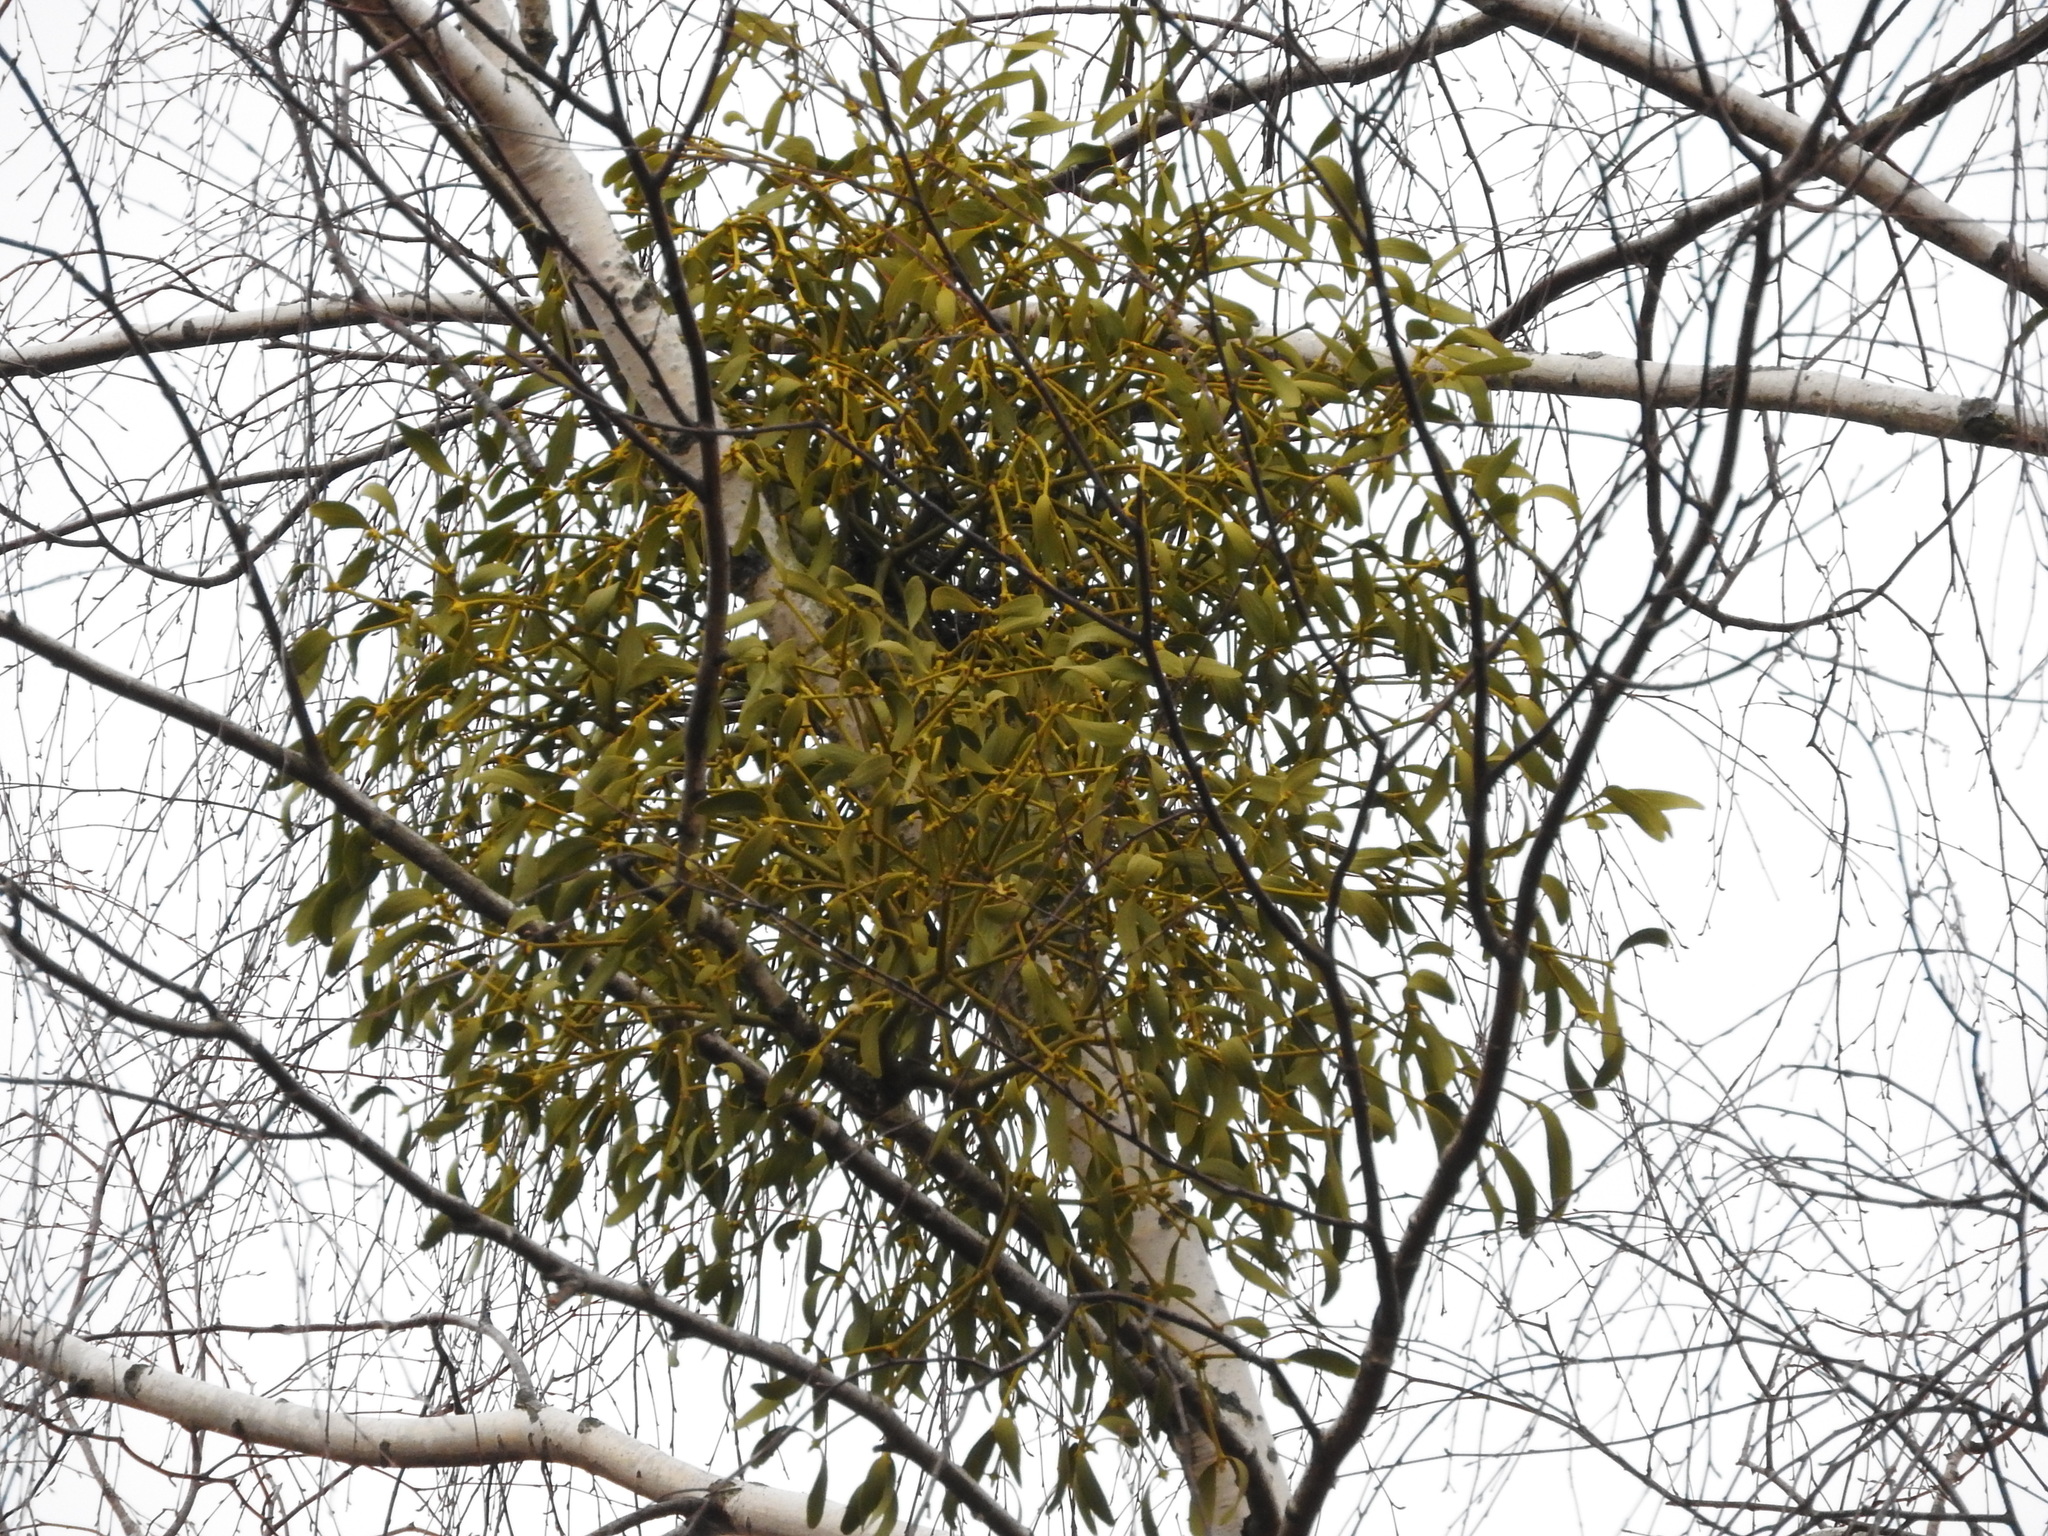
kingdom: Plantae
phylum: Tracheophyta
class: Magnoliopsida
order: Santalales
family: Viscaceae
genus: Viscum
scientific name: Viscum album
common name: Mistletoe
